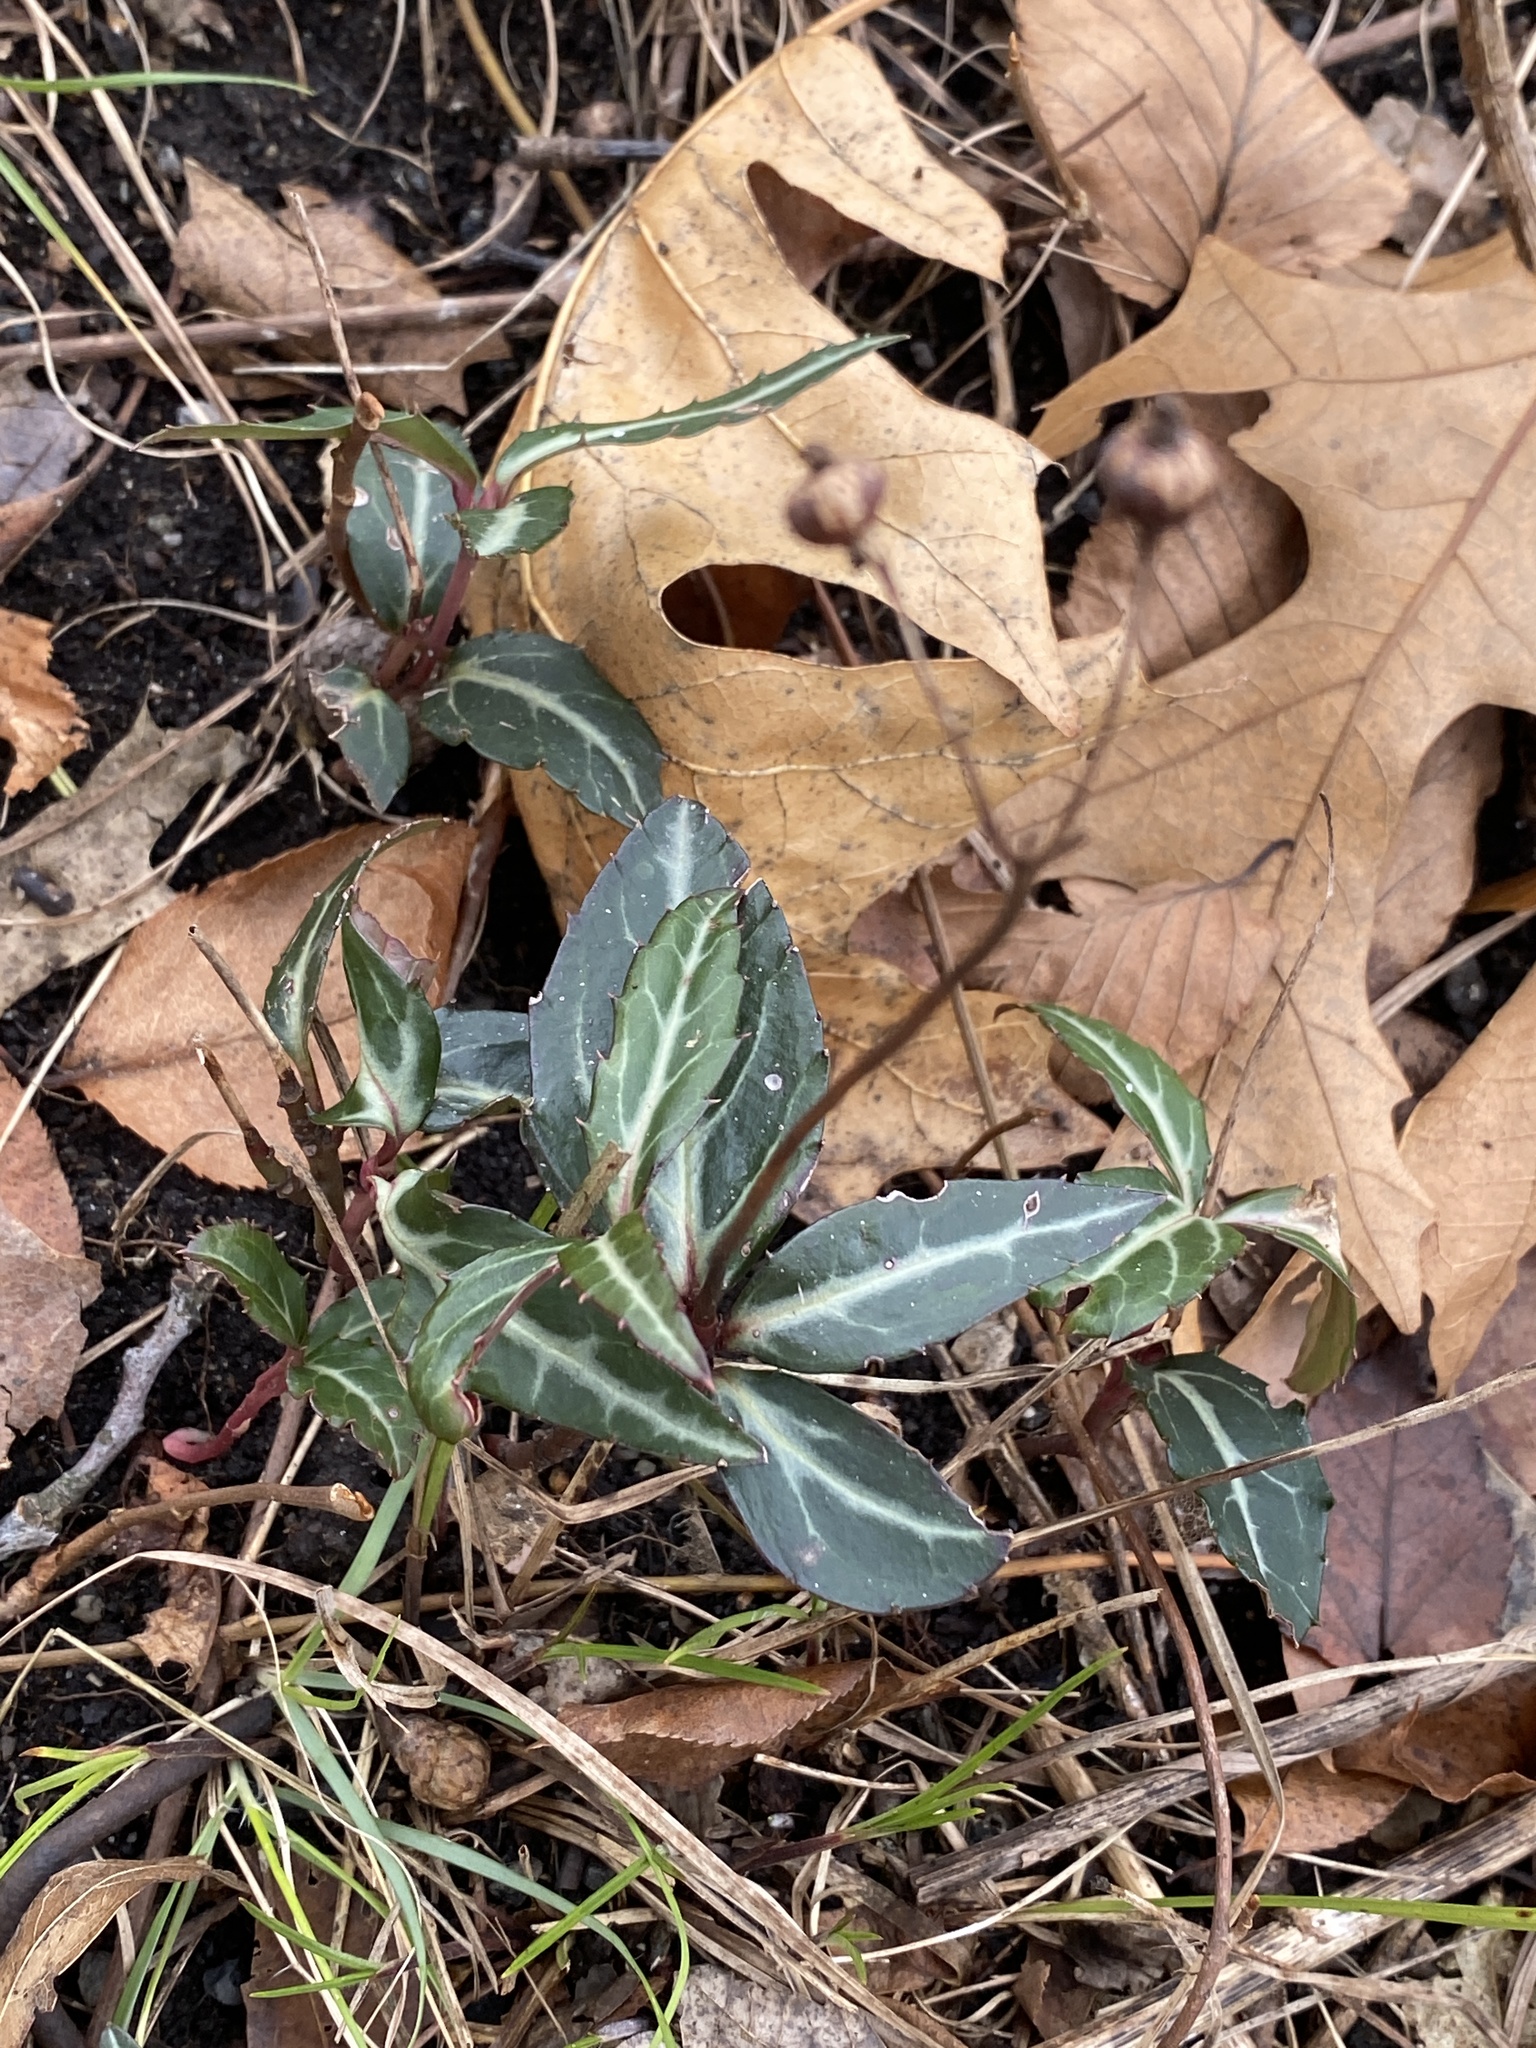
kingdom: Plantae
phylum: Tracheophyta
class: Magnoliopsida
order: Ericales
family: Ericaceae
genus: Chimaphila
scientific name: Chimaphila maculata
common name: Spotted pipsissewa
